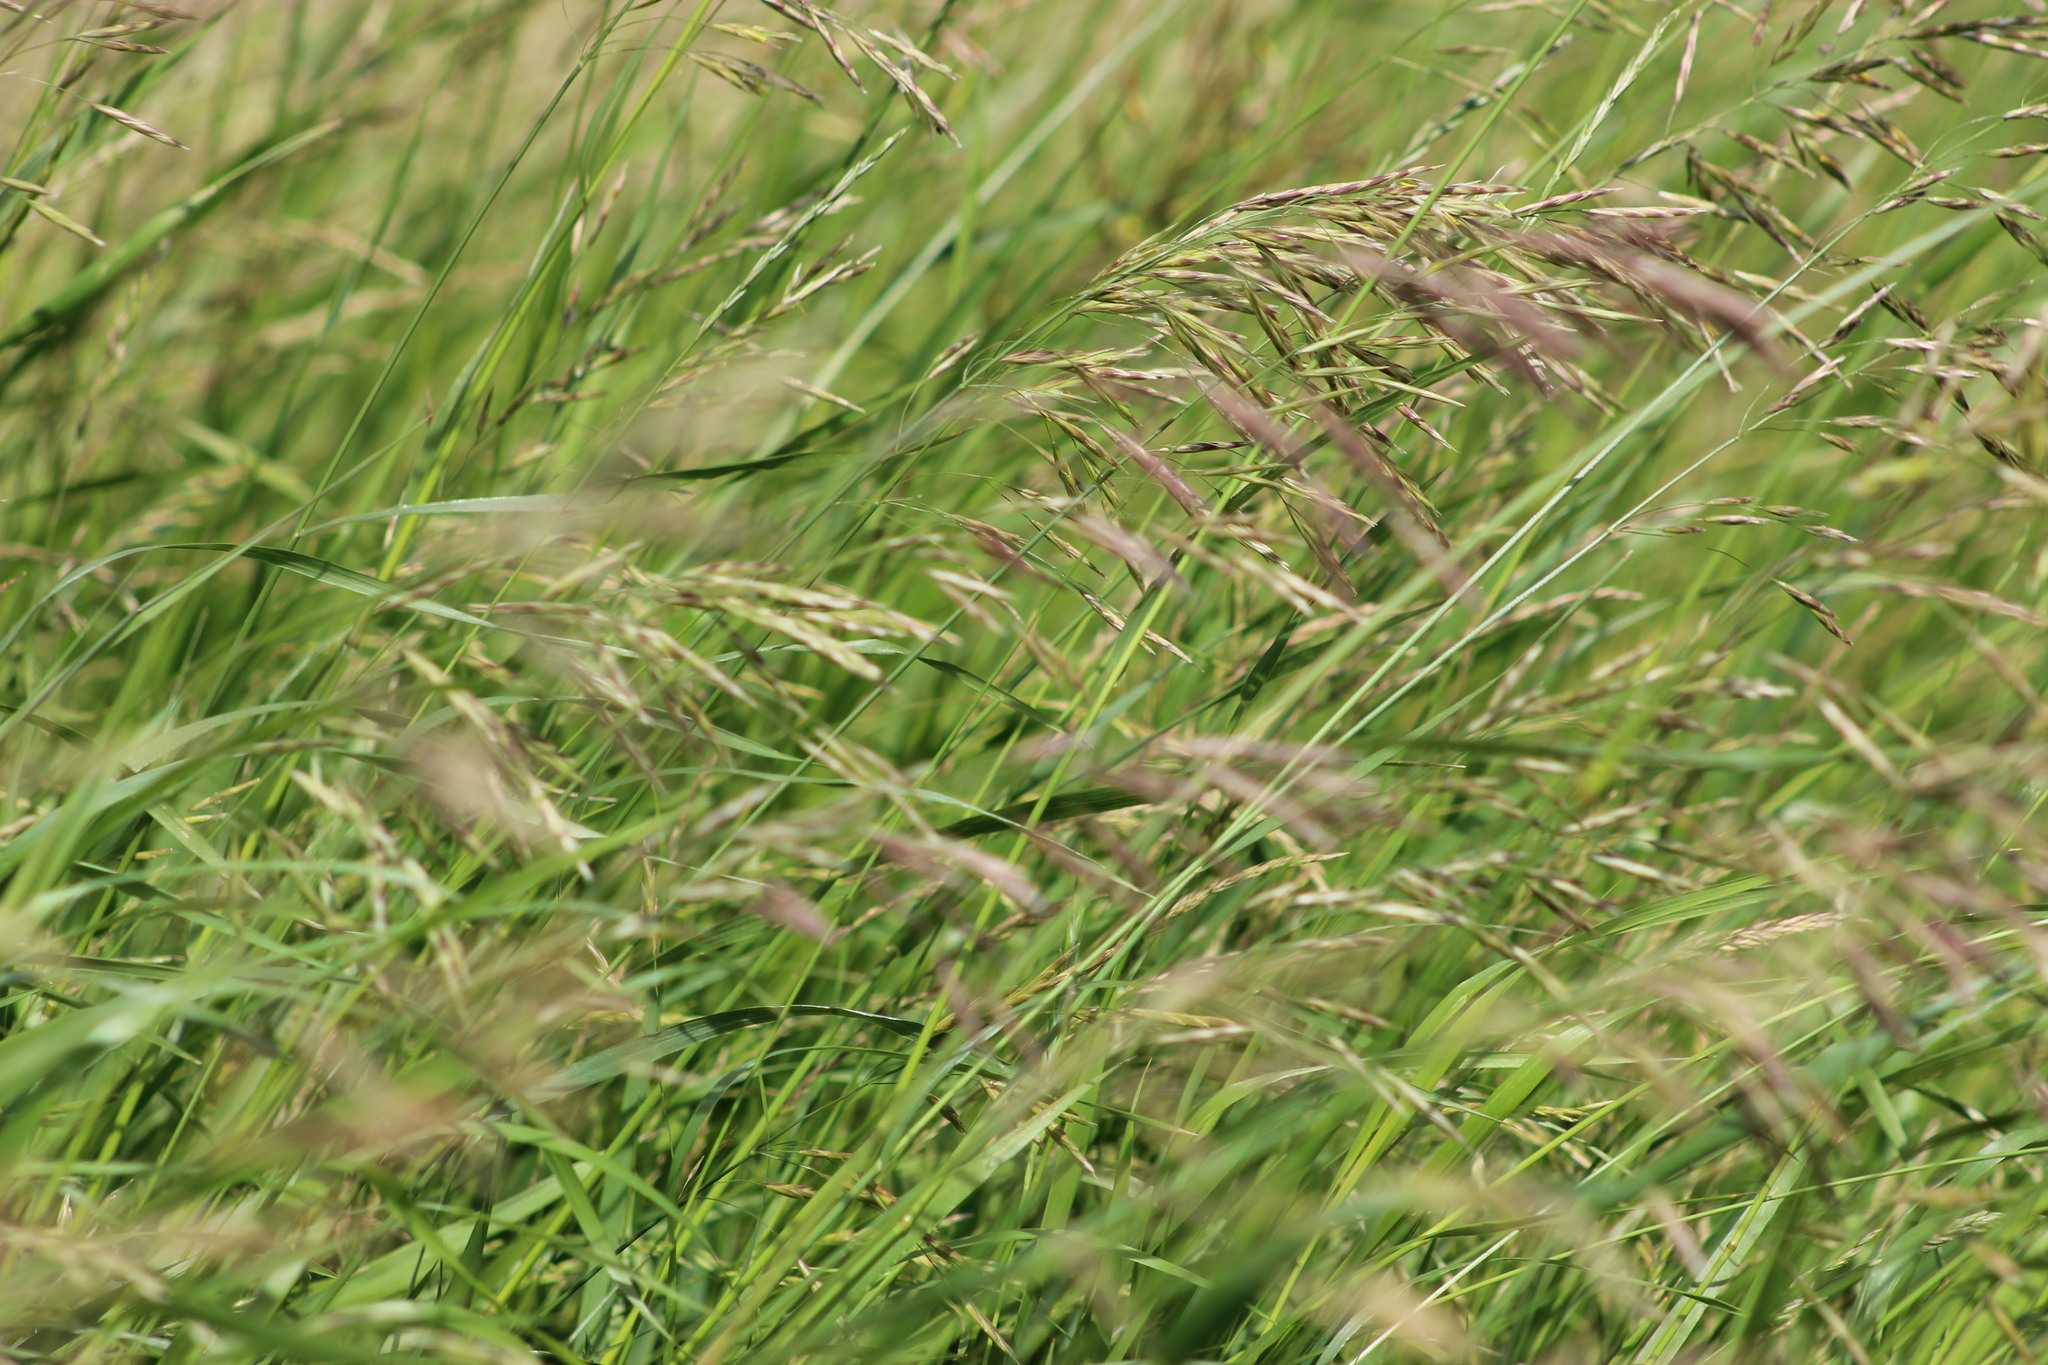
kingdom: Plantae
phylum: Tracheophyta
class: Liliopsida
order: Poales
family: Poaceae
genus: Bromus
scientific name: Bromus inermis
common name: Smooth brome
